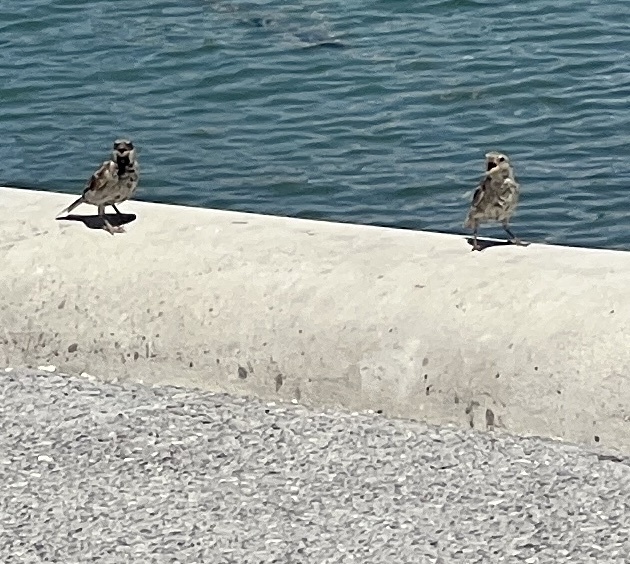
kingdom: Animalia
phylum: Chordata
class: Aves
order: Passeriformes
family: Passeridae
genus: Passer
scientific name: Passer domesticus
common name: House sparrow
